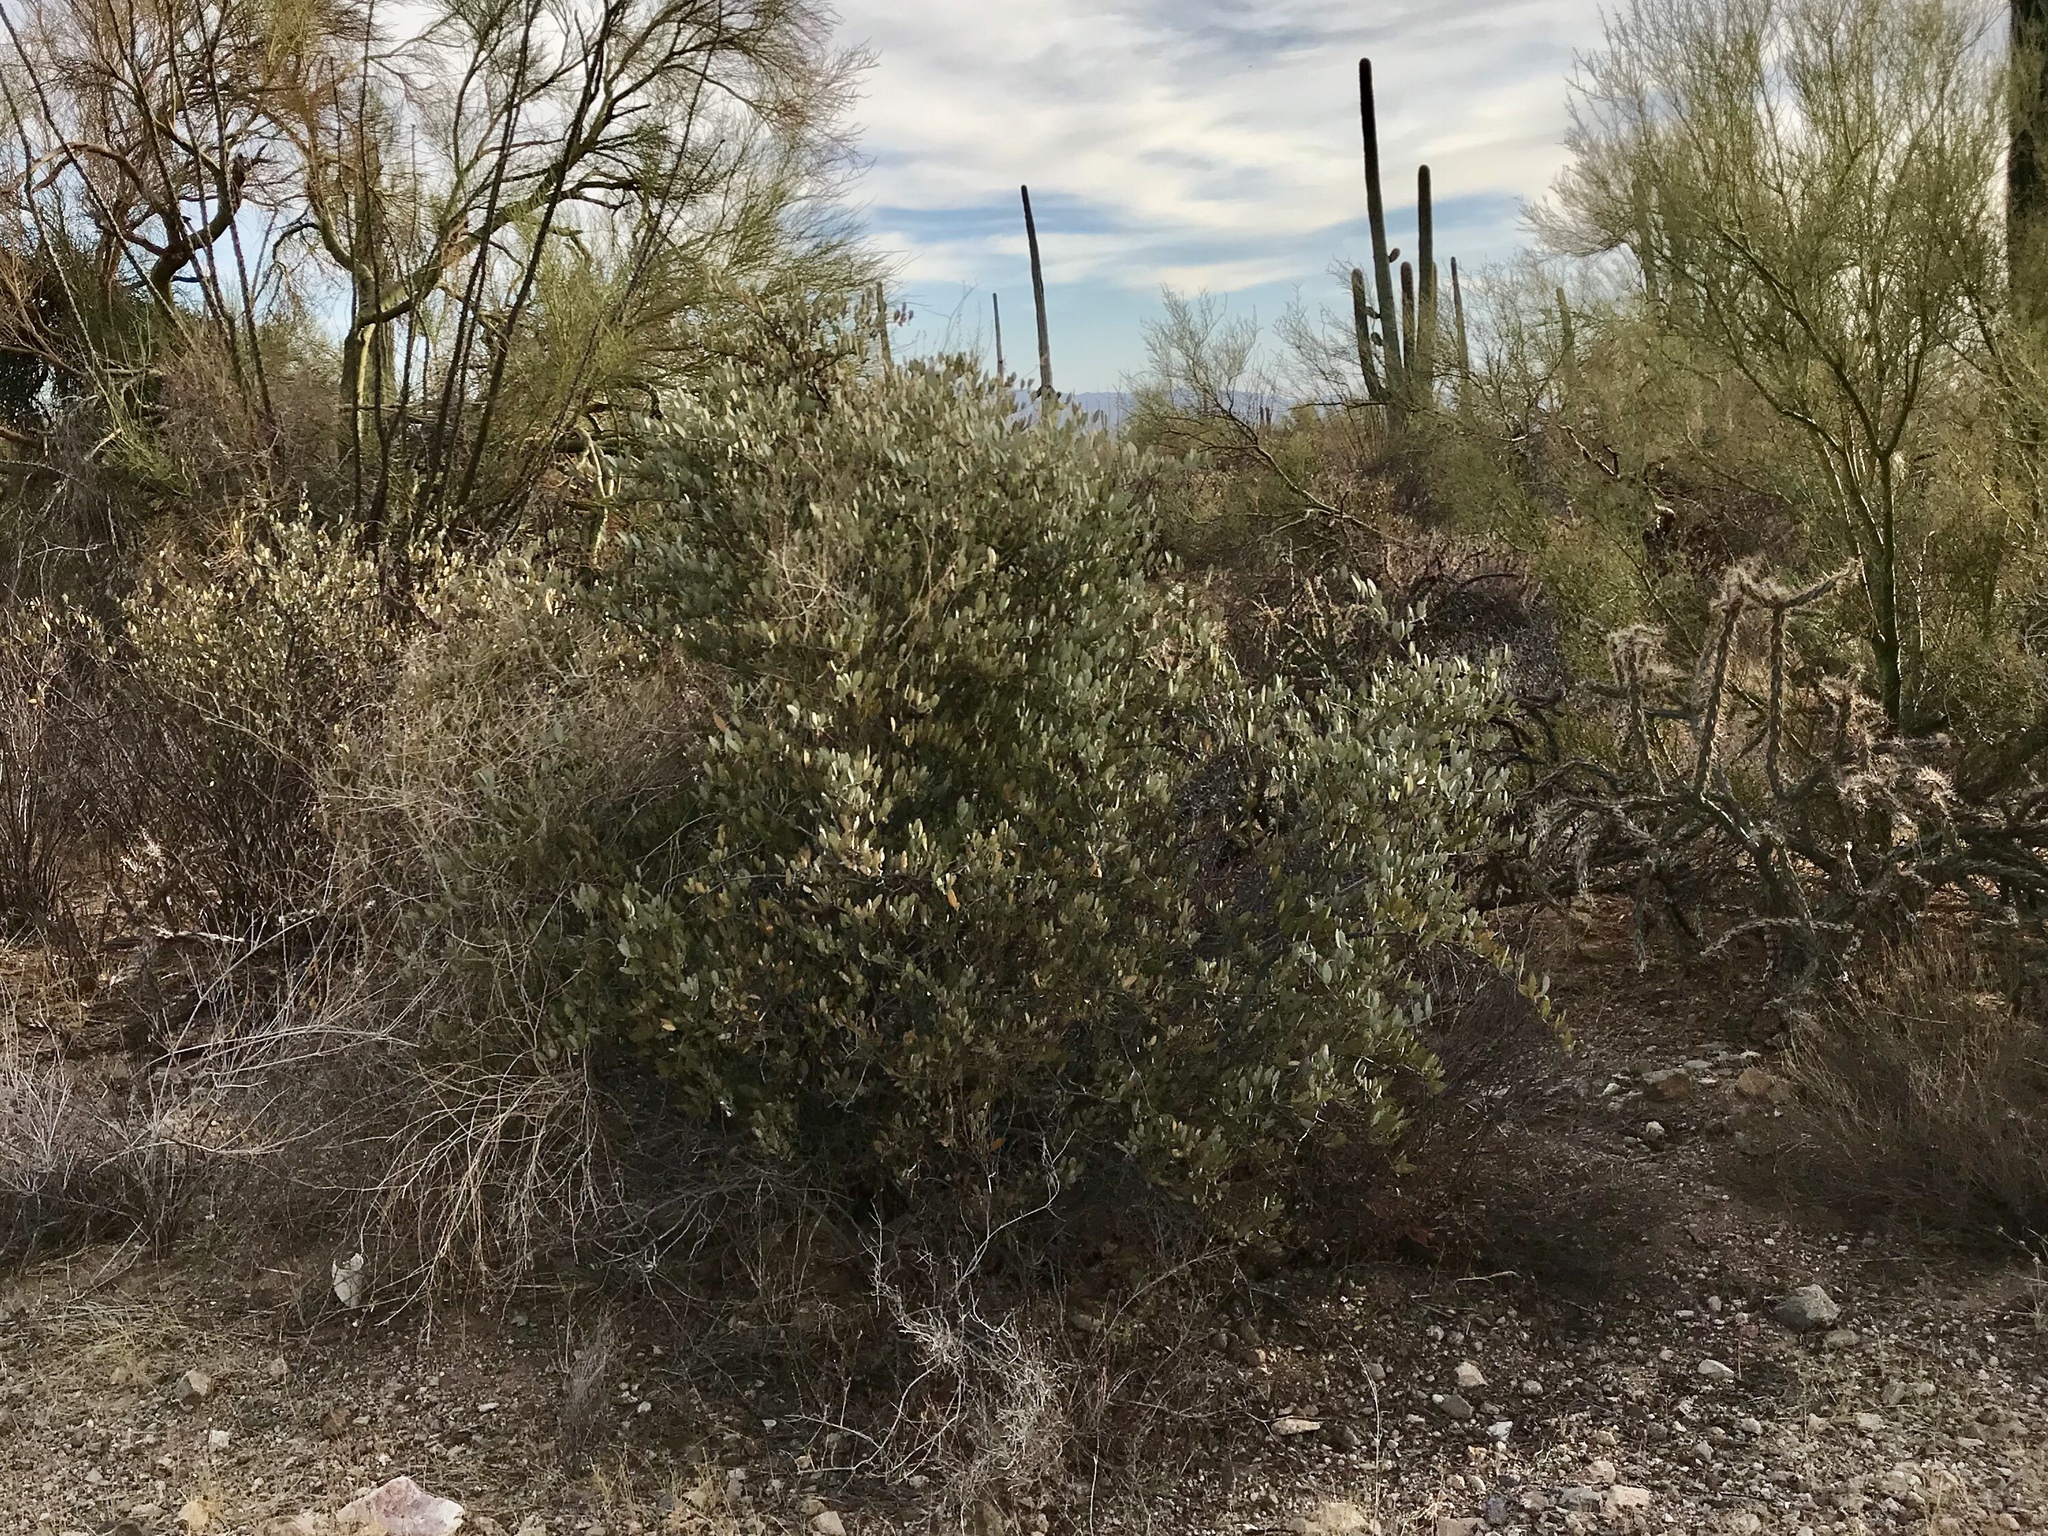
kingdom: Plantae
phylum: Tracheophyta
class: Magnoliopsida
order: Caryophyllales
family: Simmondsiaceae
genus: Simmondsia
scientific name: Simmondsia chinensis
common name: Jojoba
